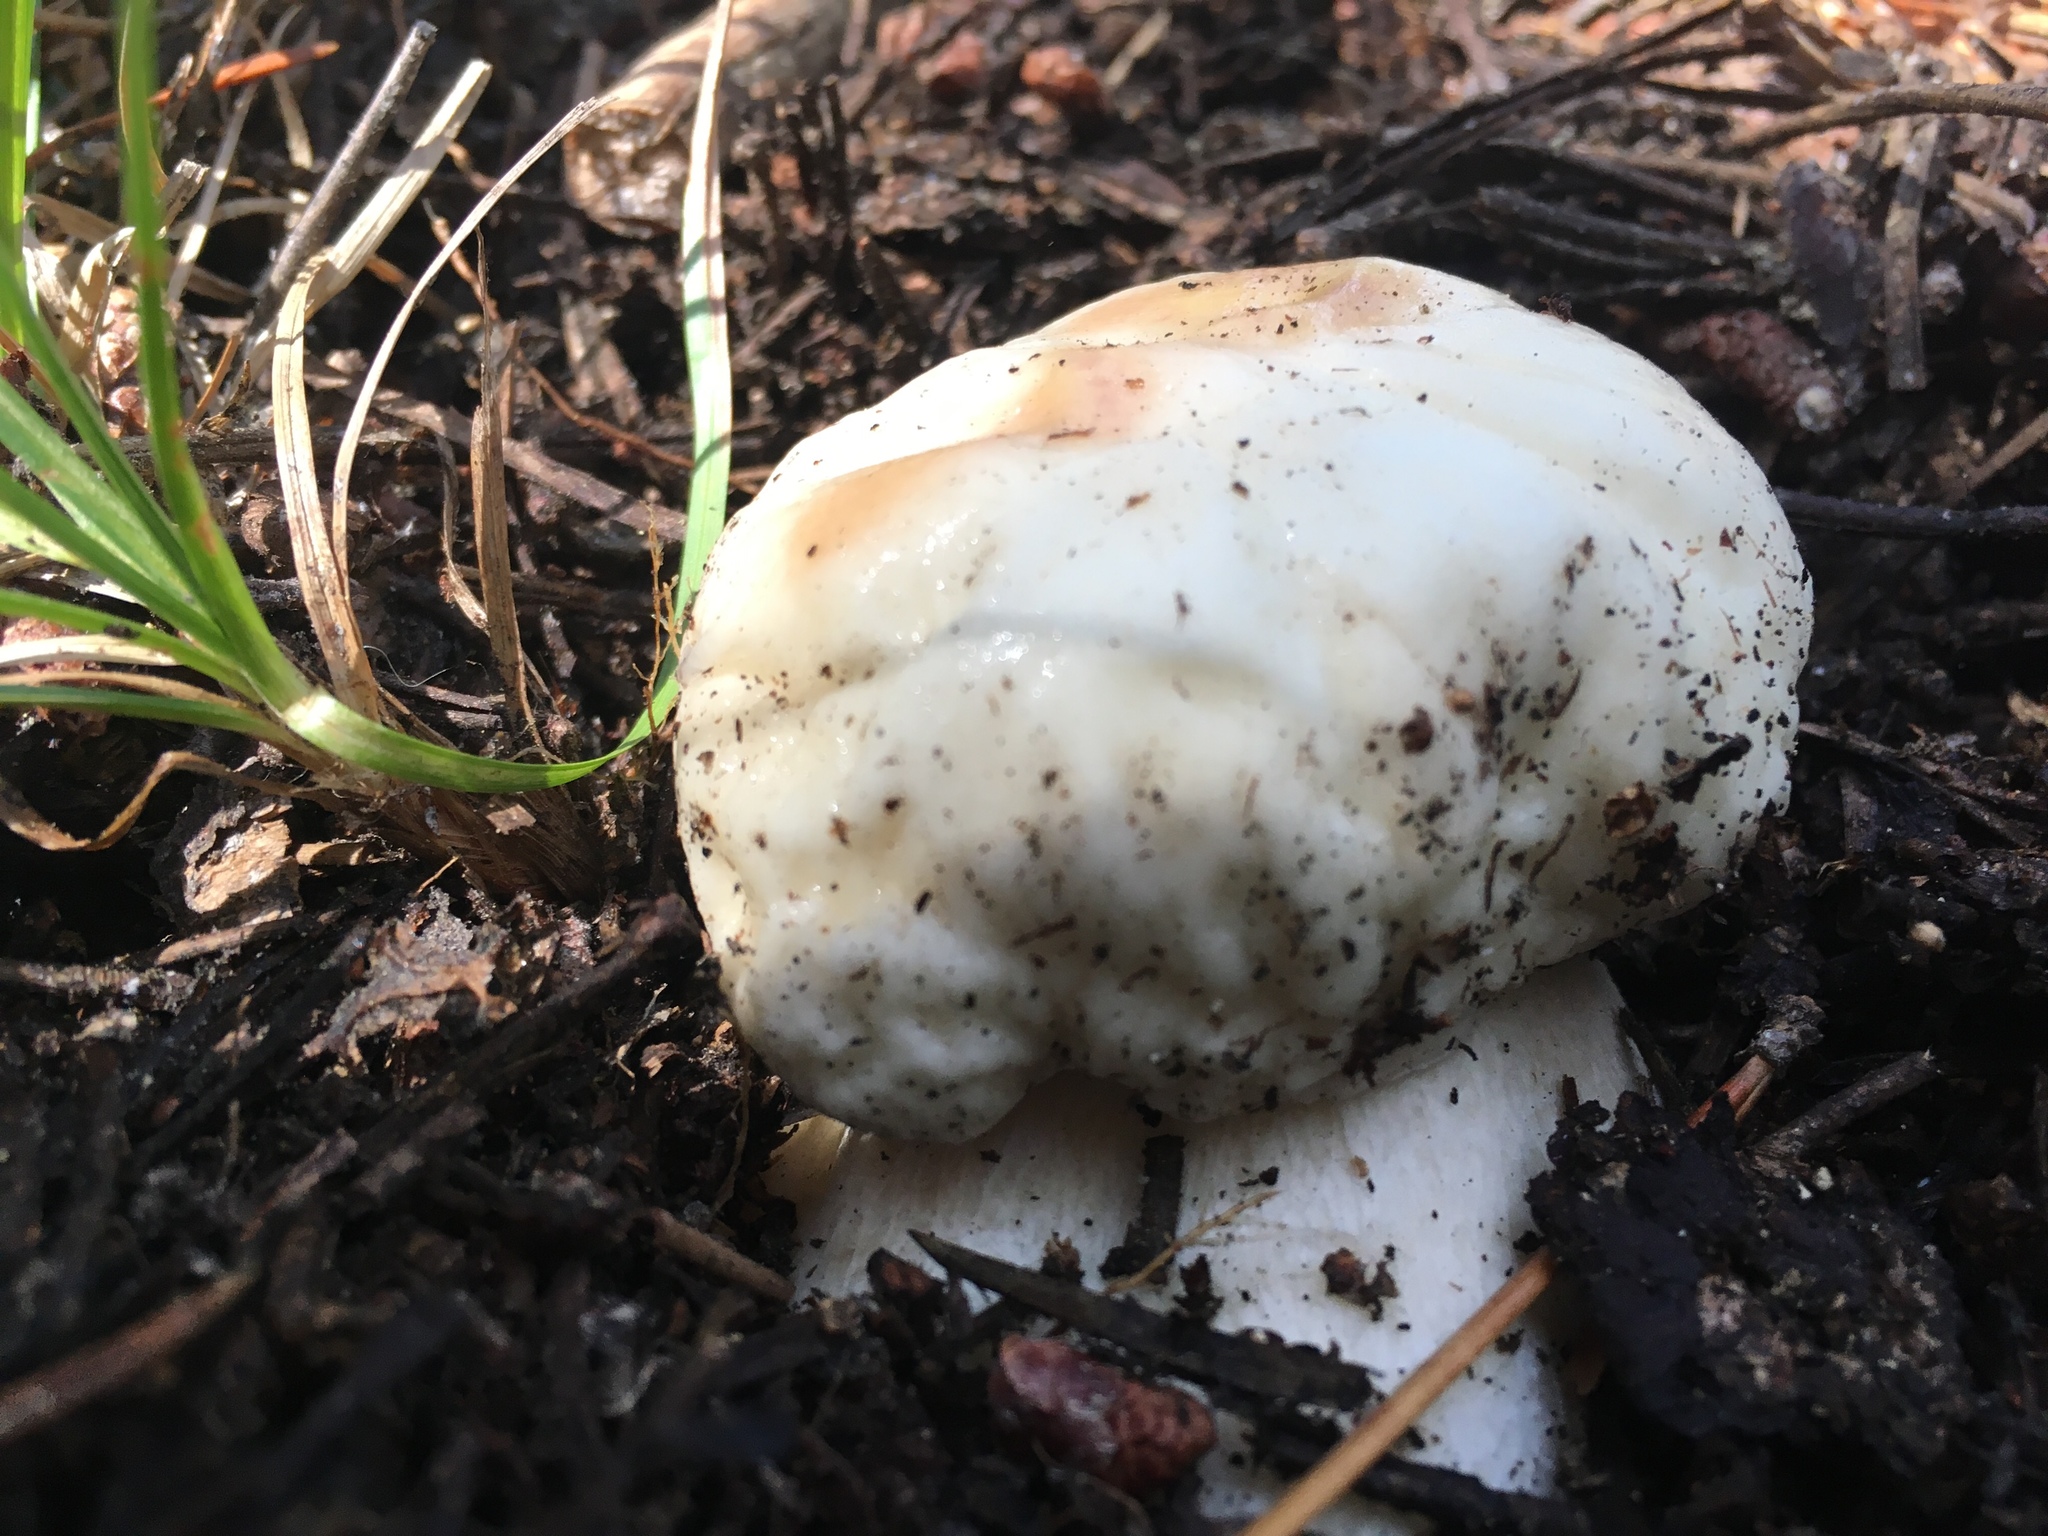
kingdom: Fungi
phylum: Basidiomycota
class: Agaricomycetes
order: Boletales
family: Boletaceae
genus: Boletus
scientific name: Boletus edulis
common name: Cep
